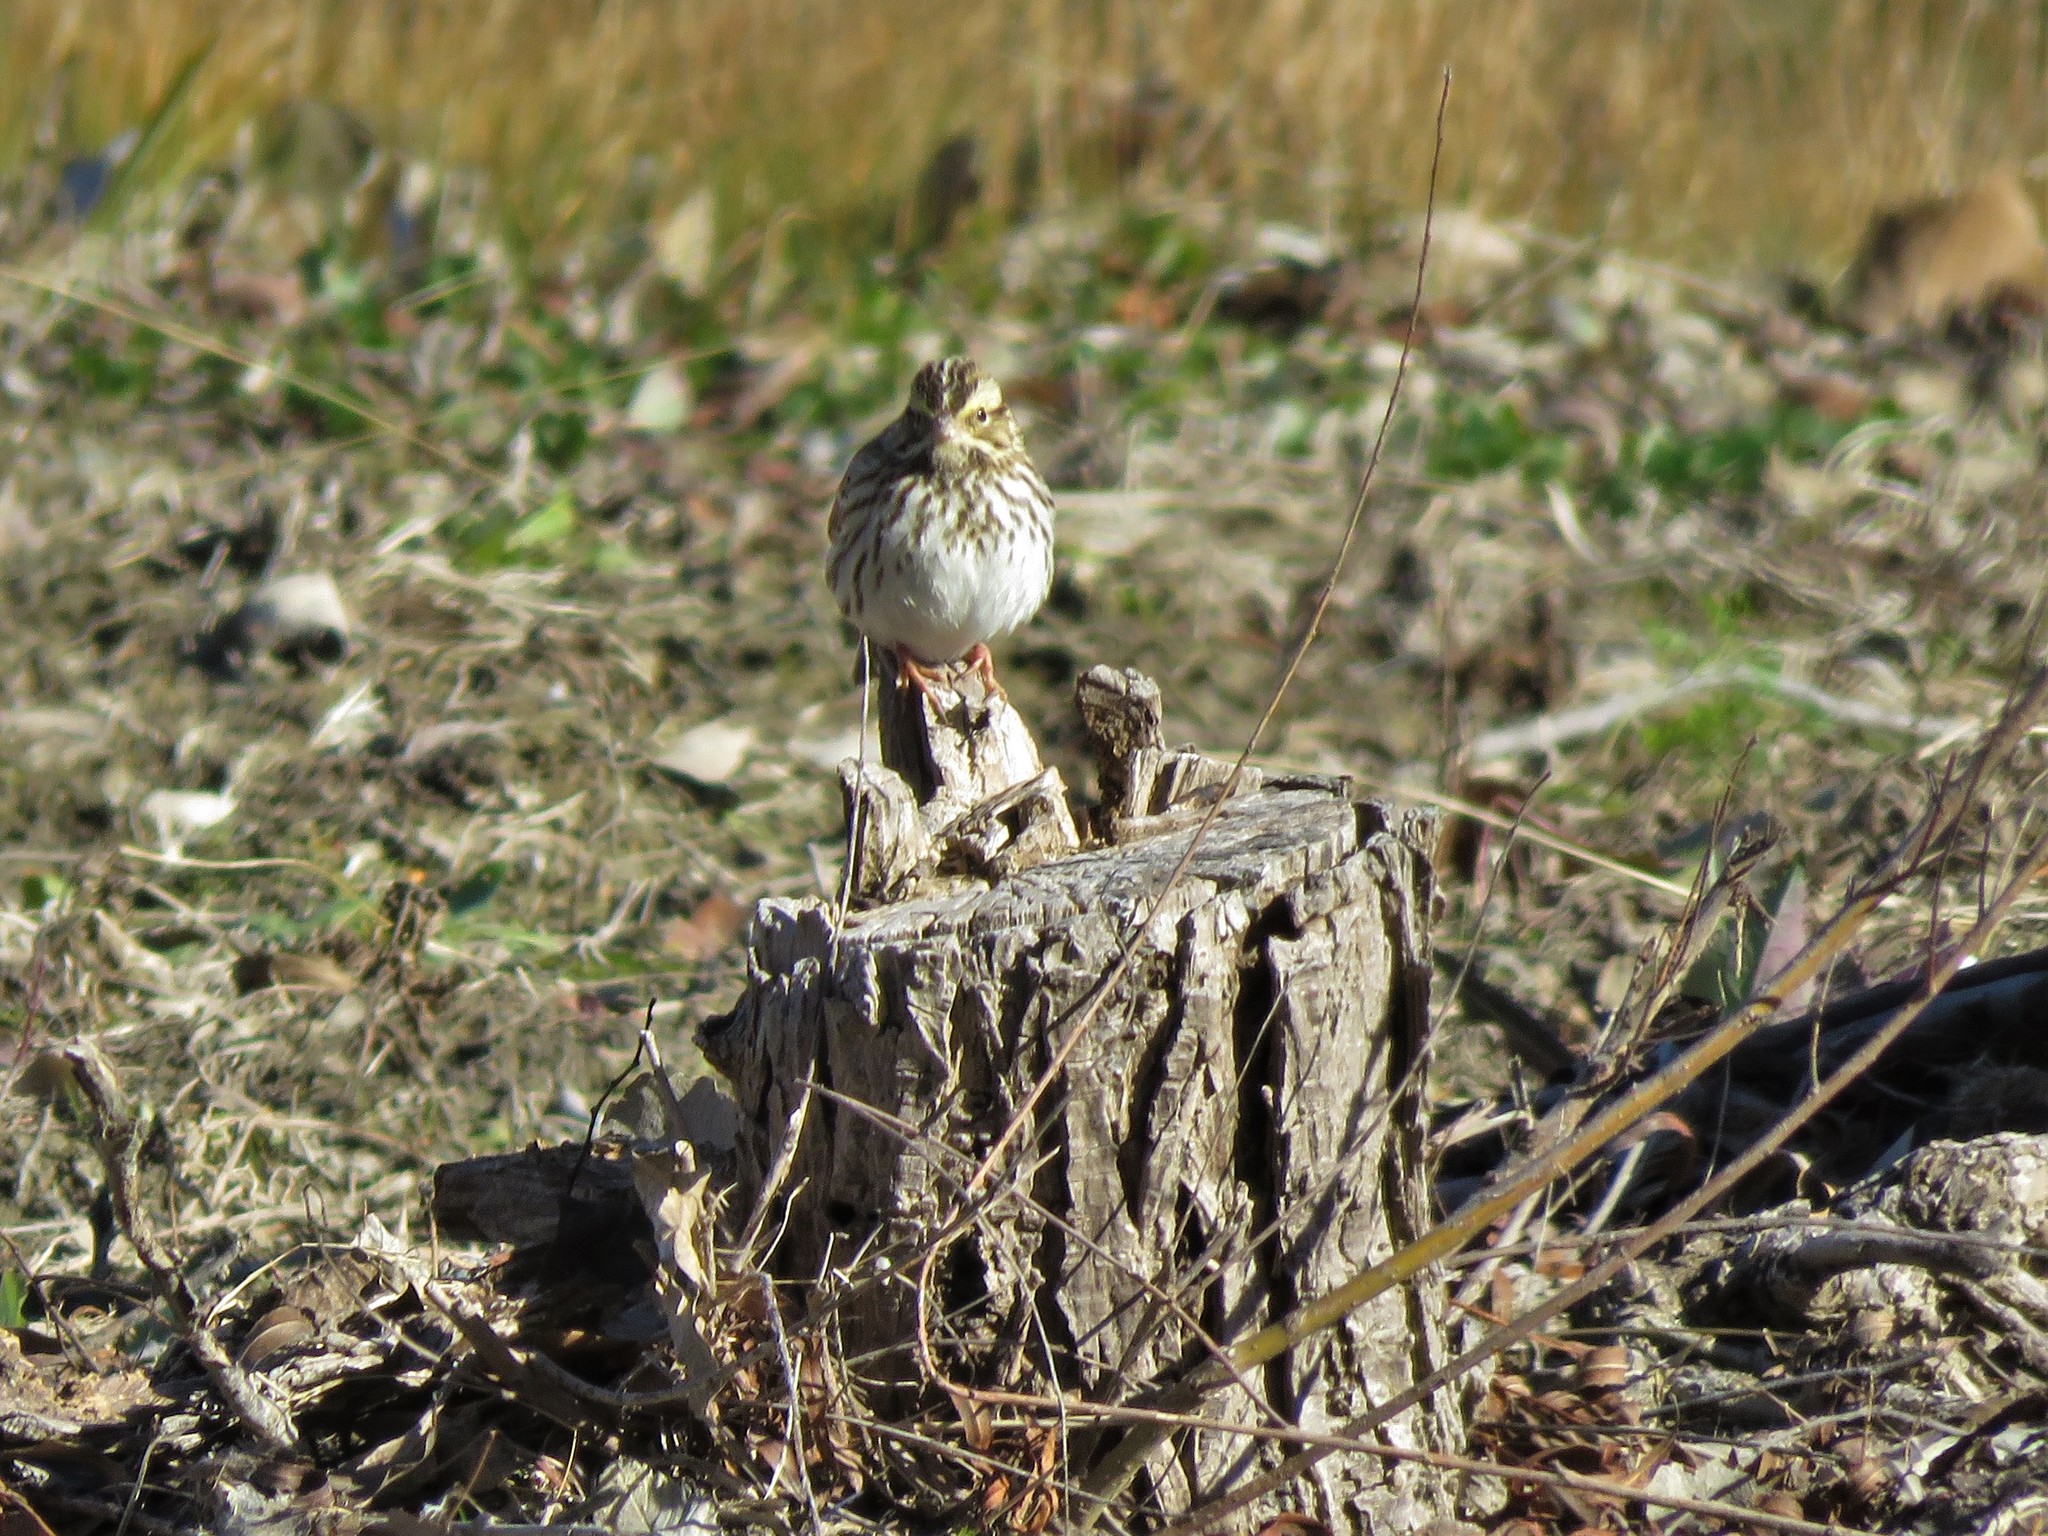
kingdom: Animalia
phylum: Chordata
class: Aves
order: Passeriformes
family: Passerellidae
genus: Passerculus
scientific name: Passerculus sandwichensis
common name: Savannah sparrow
